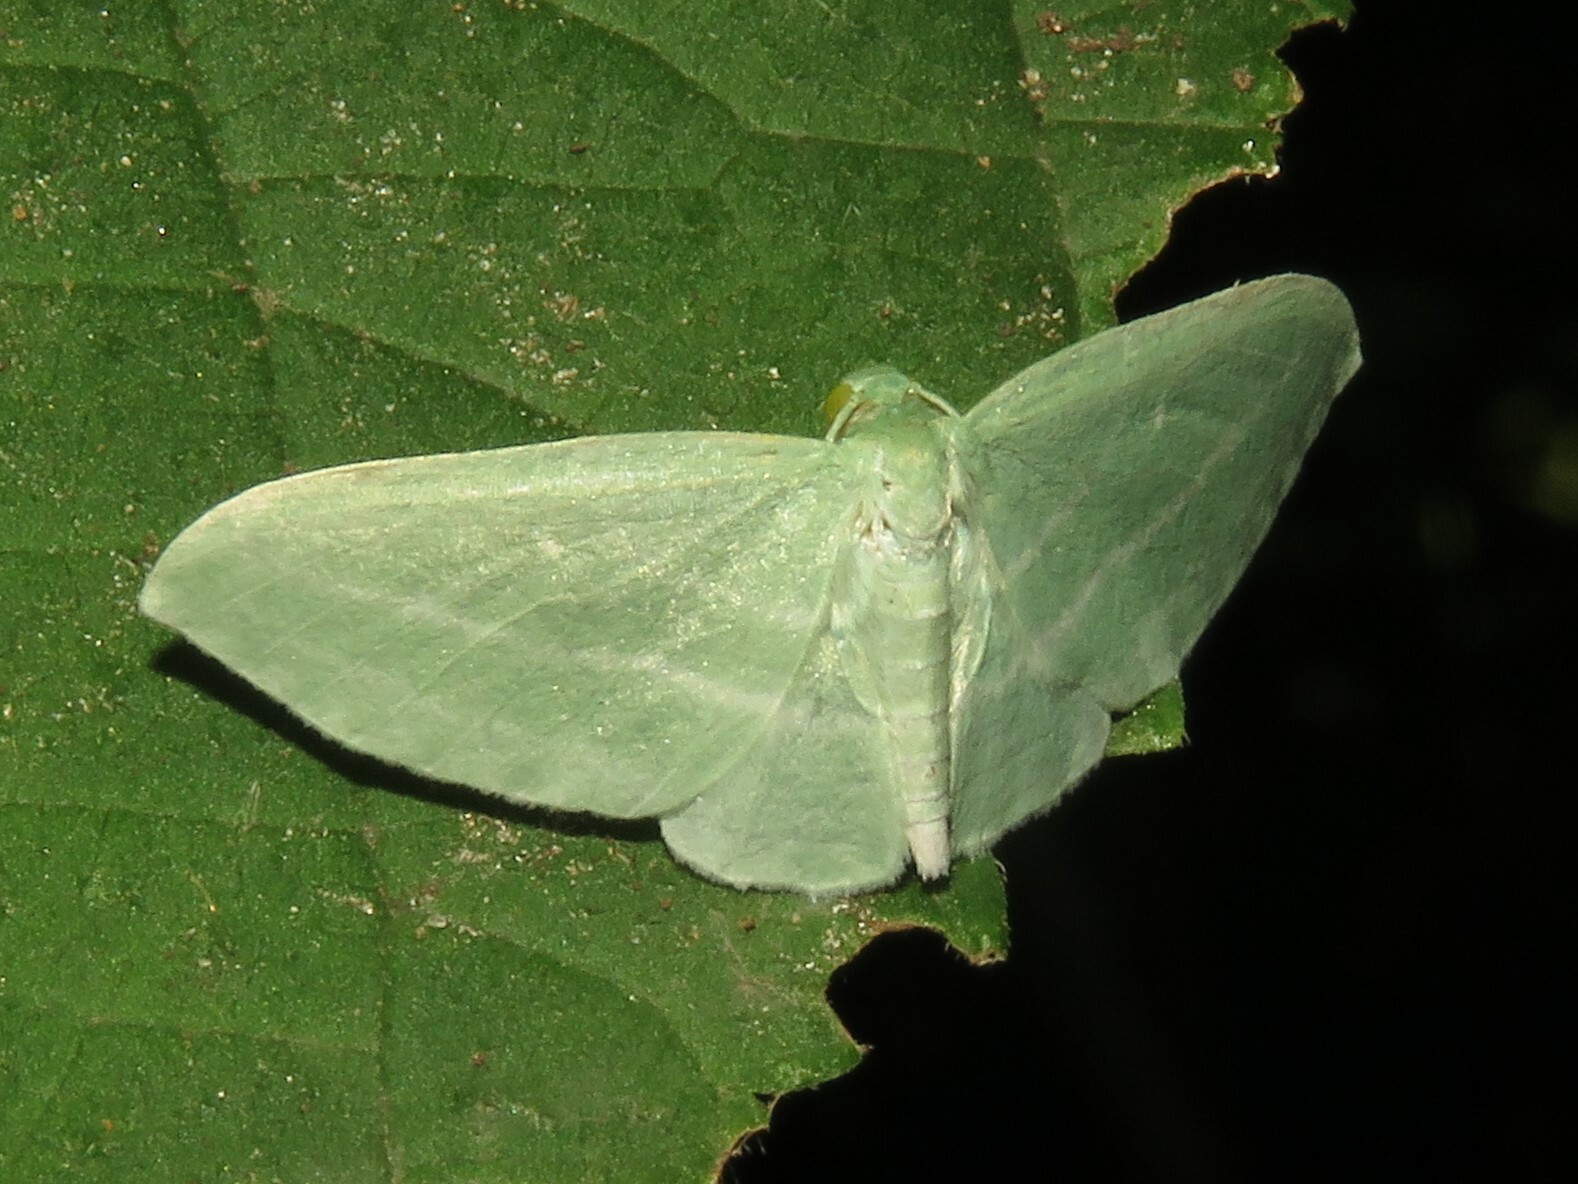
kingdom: Animalia
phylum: Arthropoda
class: Insecta
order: Lepidoptera
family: Geometridae
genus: Dyspteris
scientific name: Dyspteris abortivaria
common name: Bad-wing
